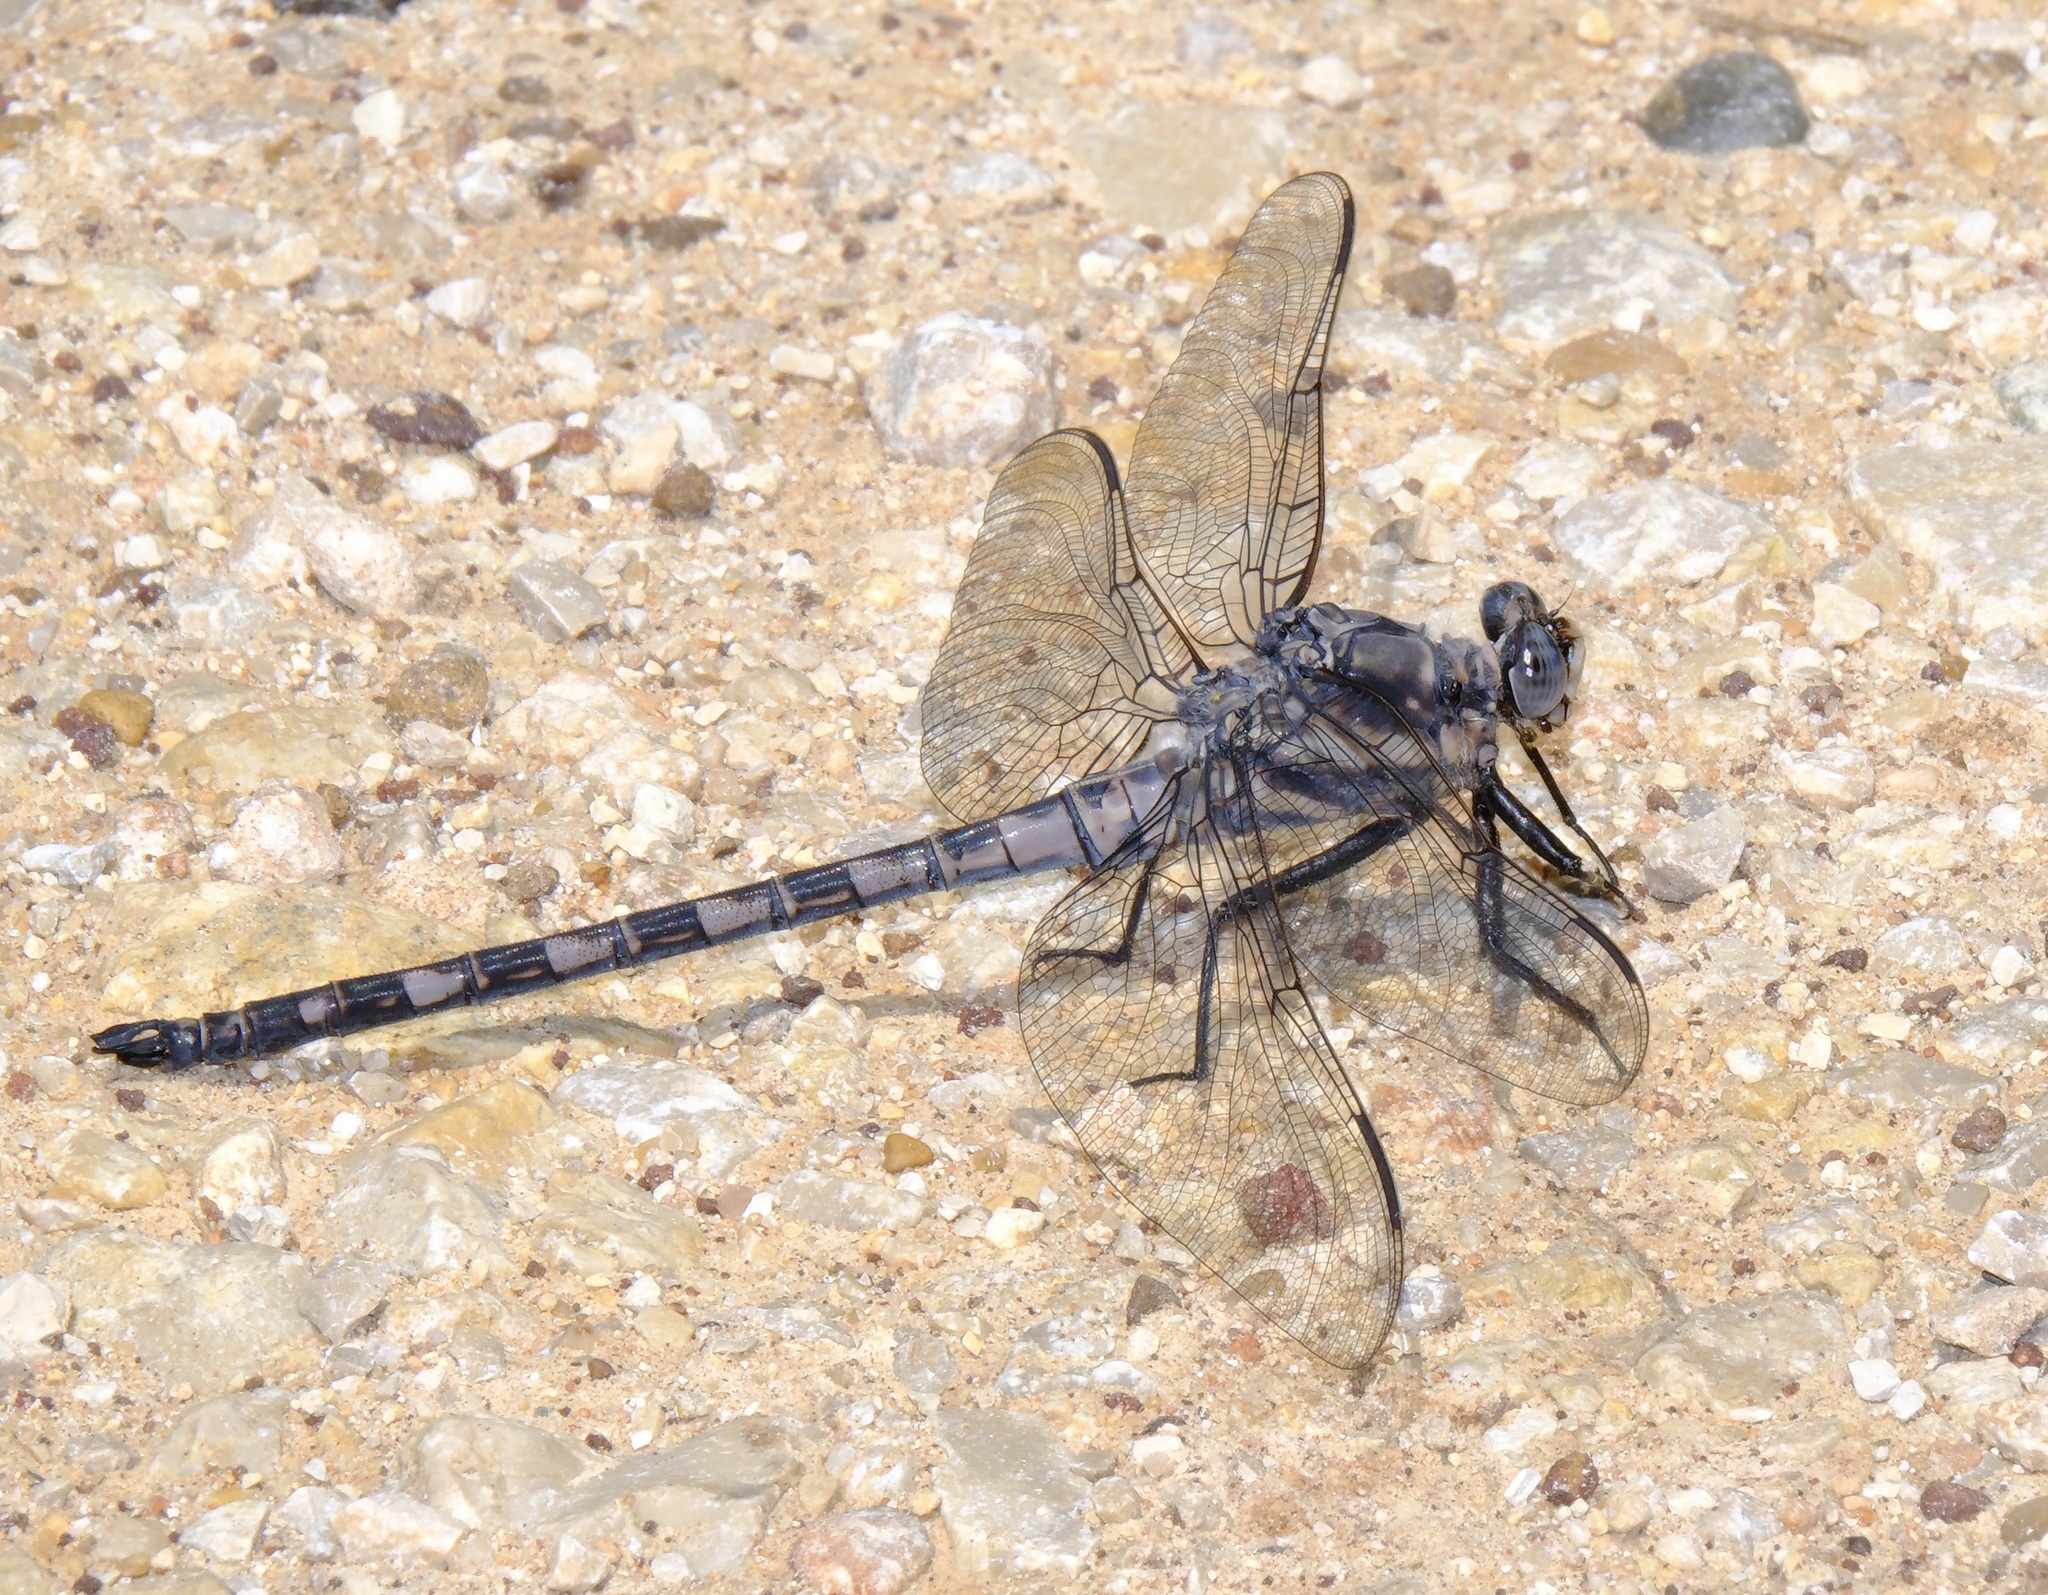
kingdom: Animalia
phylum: Arthropoda
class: Insecta
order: Odonata
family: Petaluridae
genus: Tachopteryx
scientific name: Tachopteryx thoreyi
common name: Gray petaltail
